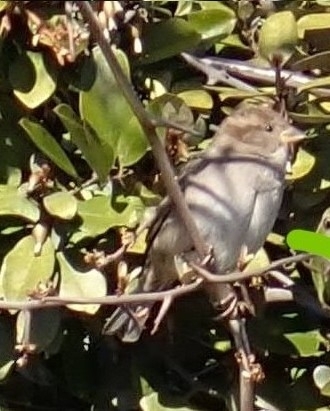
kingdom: Animalia
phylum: Chordata
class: Aves
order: Passeriformes
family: Passeridae
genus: Passer
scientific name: Passer domesticus
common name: House sparrow
